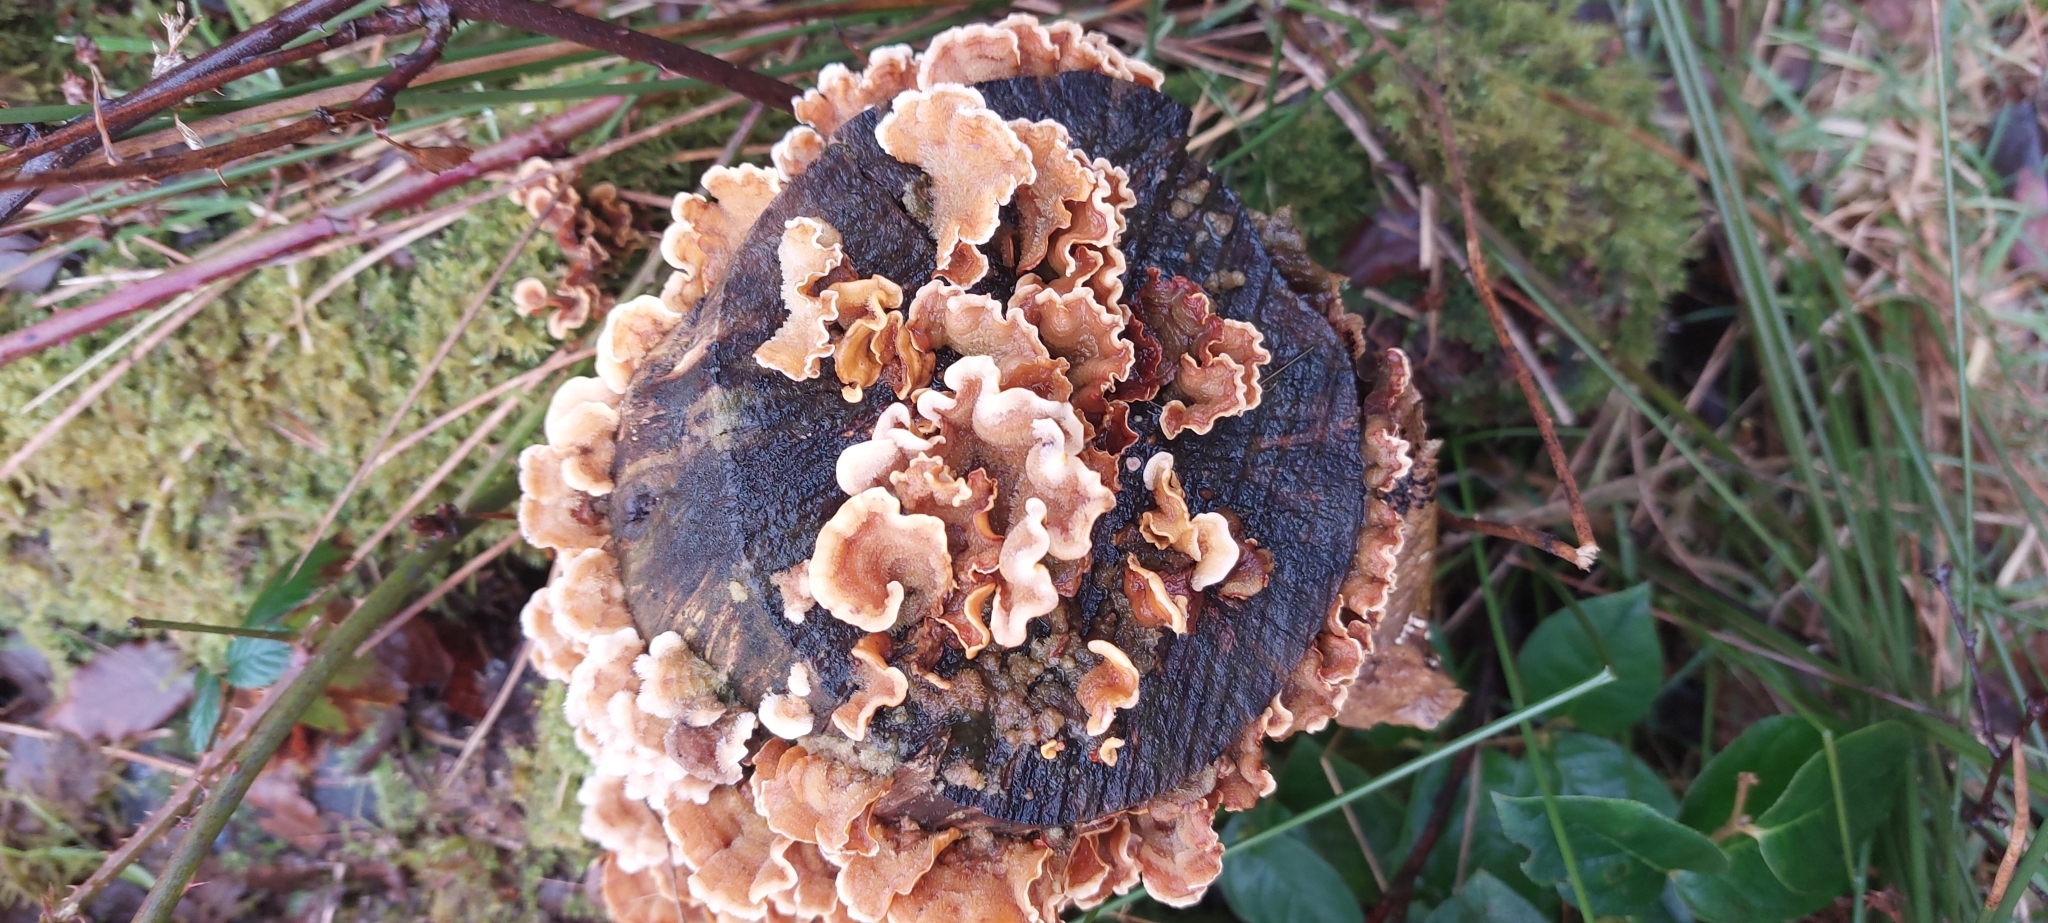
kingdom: Fungi
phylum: Basidiomycota
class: Agaricomycetes
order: Russulales
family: Stereaceae
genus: Stereum
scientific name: Stereum hirsutum
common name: Hairy curtain crust
